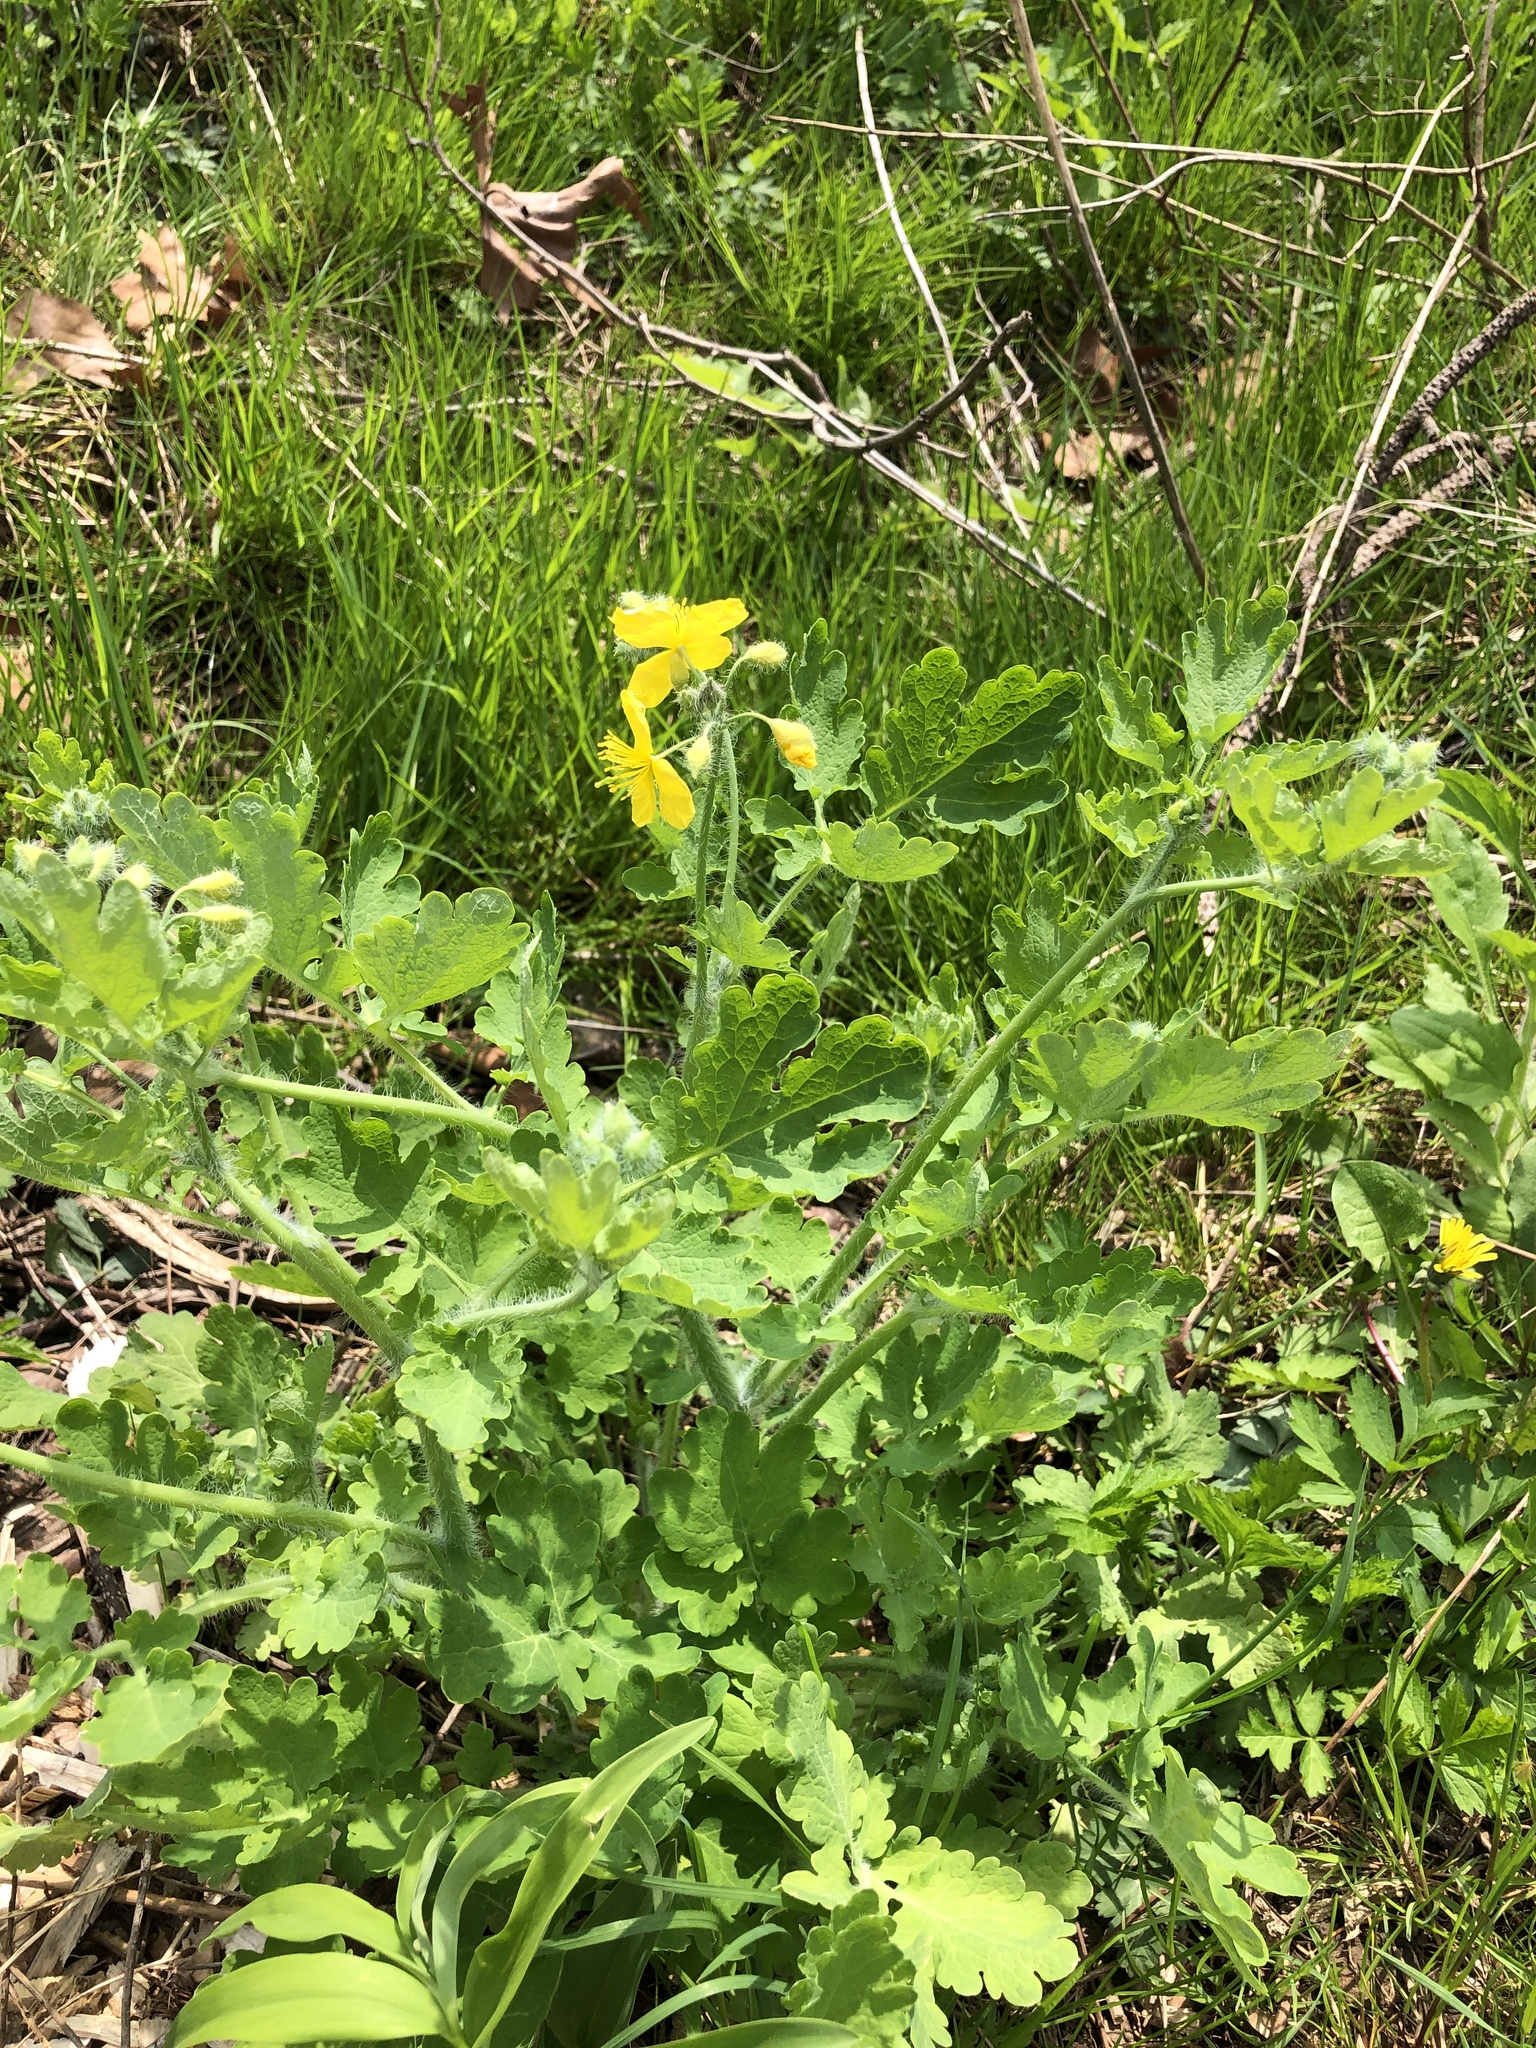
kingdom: Plantae
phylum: Tracheophyta
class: Magnoliopsida
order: Ranunculales
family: Papaveraceae
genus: Chelidonium
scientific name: Chelidonium majus
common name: Greater celandine
